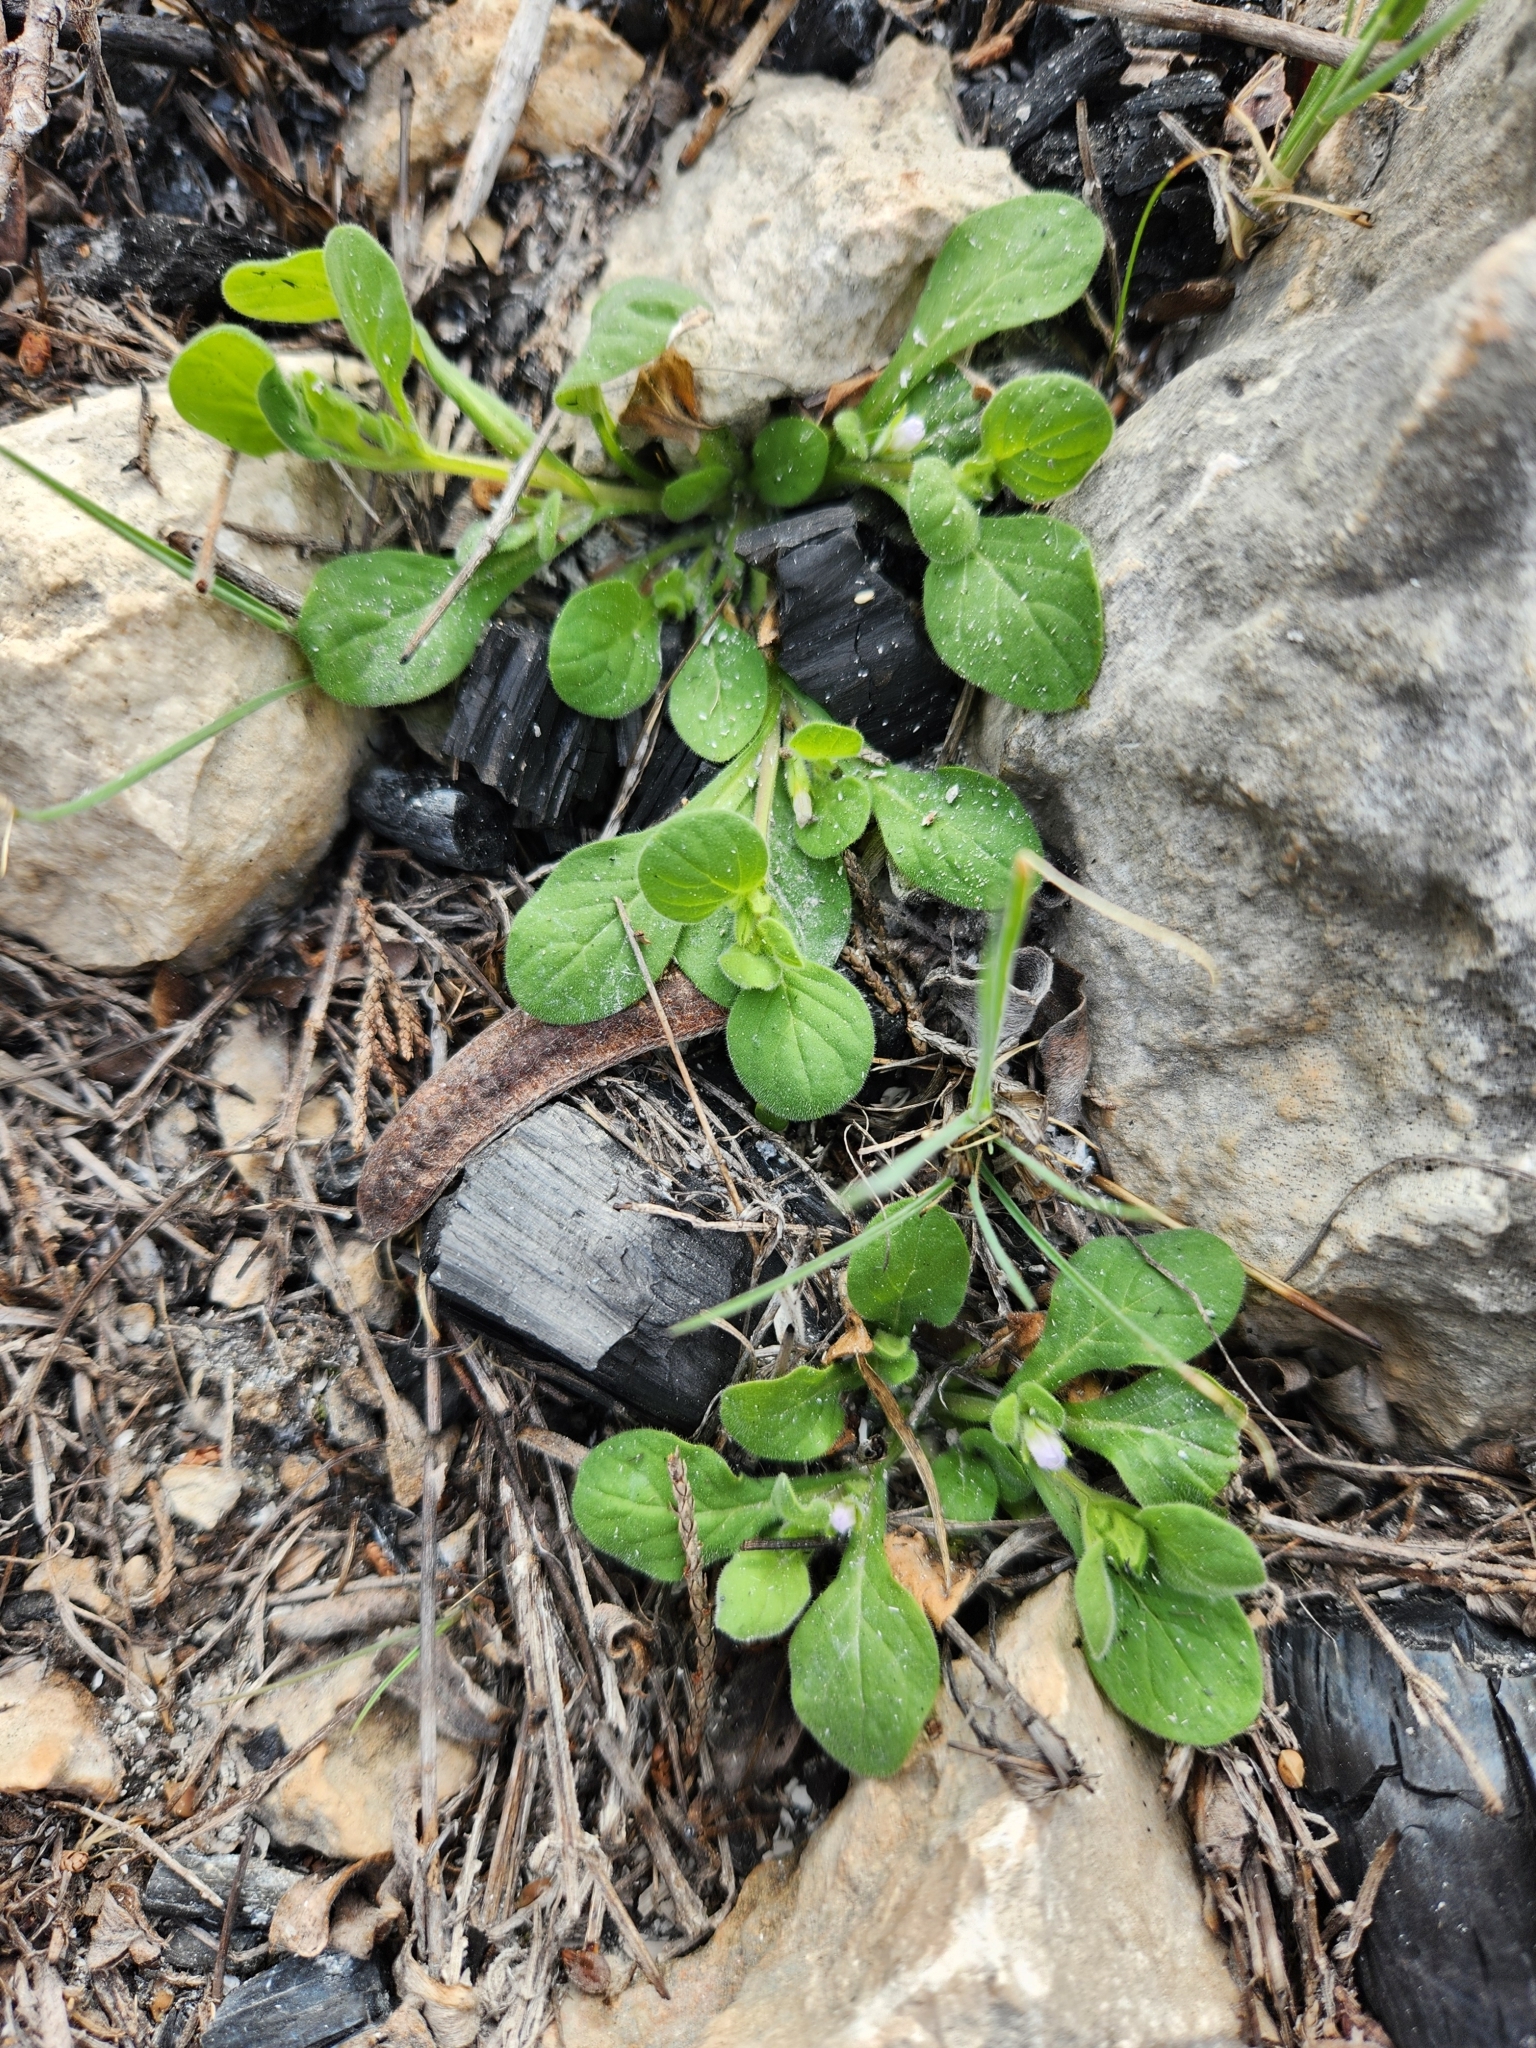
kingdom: Plantae
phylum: Tracheophyta
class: Magnoliopsida
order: Boraginales
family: Namaceae
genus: Nama
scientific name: Nama jamaicensis
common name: Jamaicanweed
